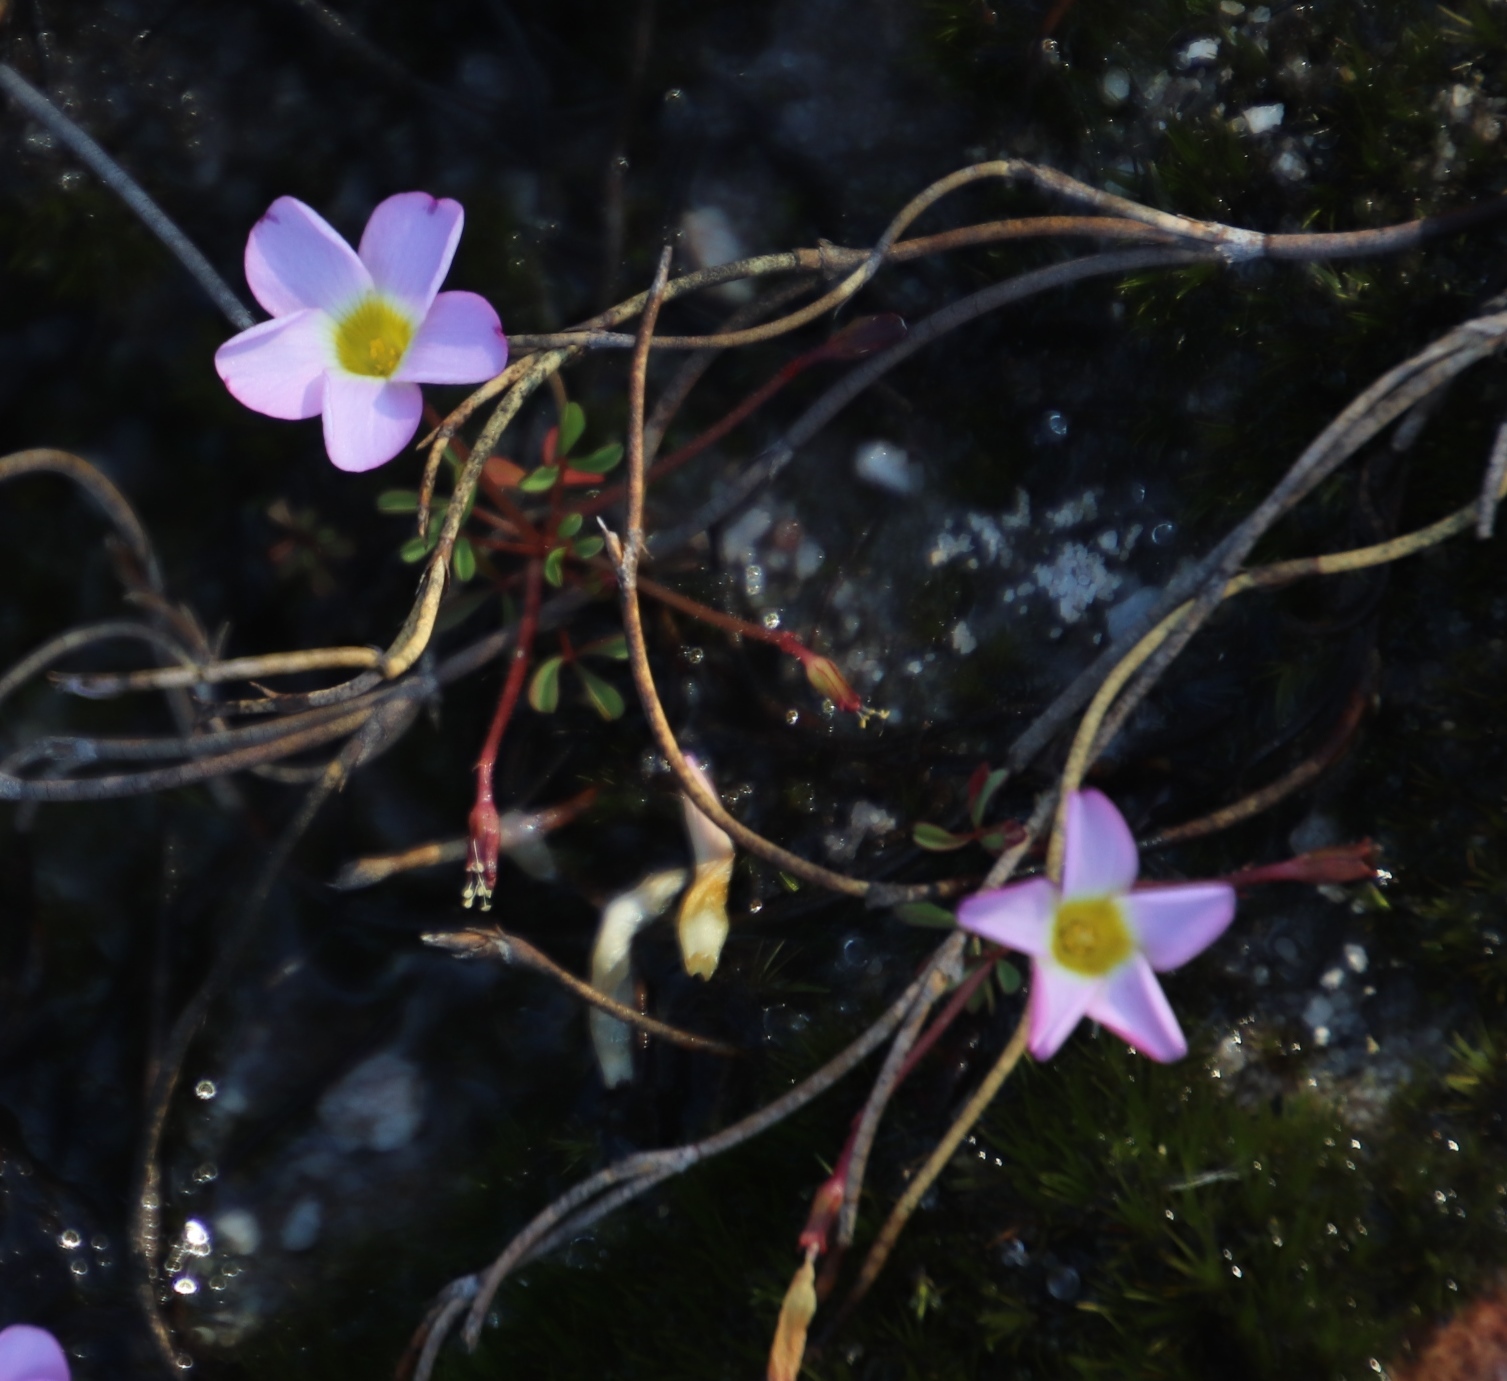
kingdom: Plantae
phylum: Tracheophyta
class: Magnoliopsida
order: Oxalidales
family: Oxalidaceae
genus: Oxalis
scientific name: Oxalis recticaulis
